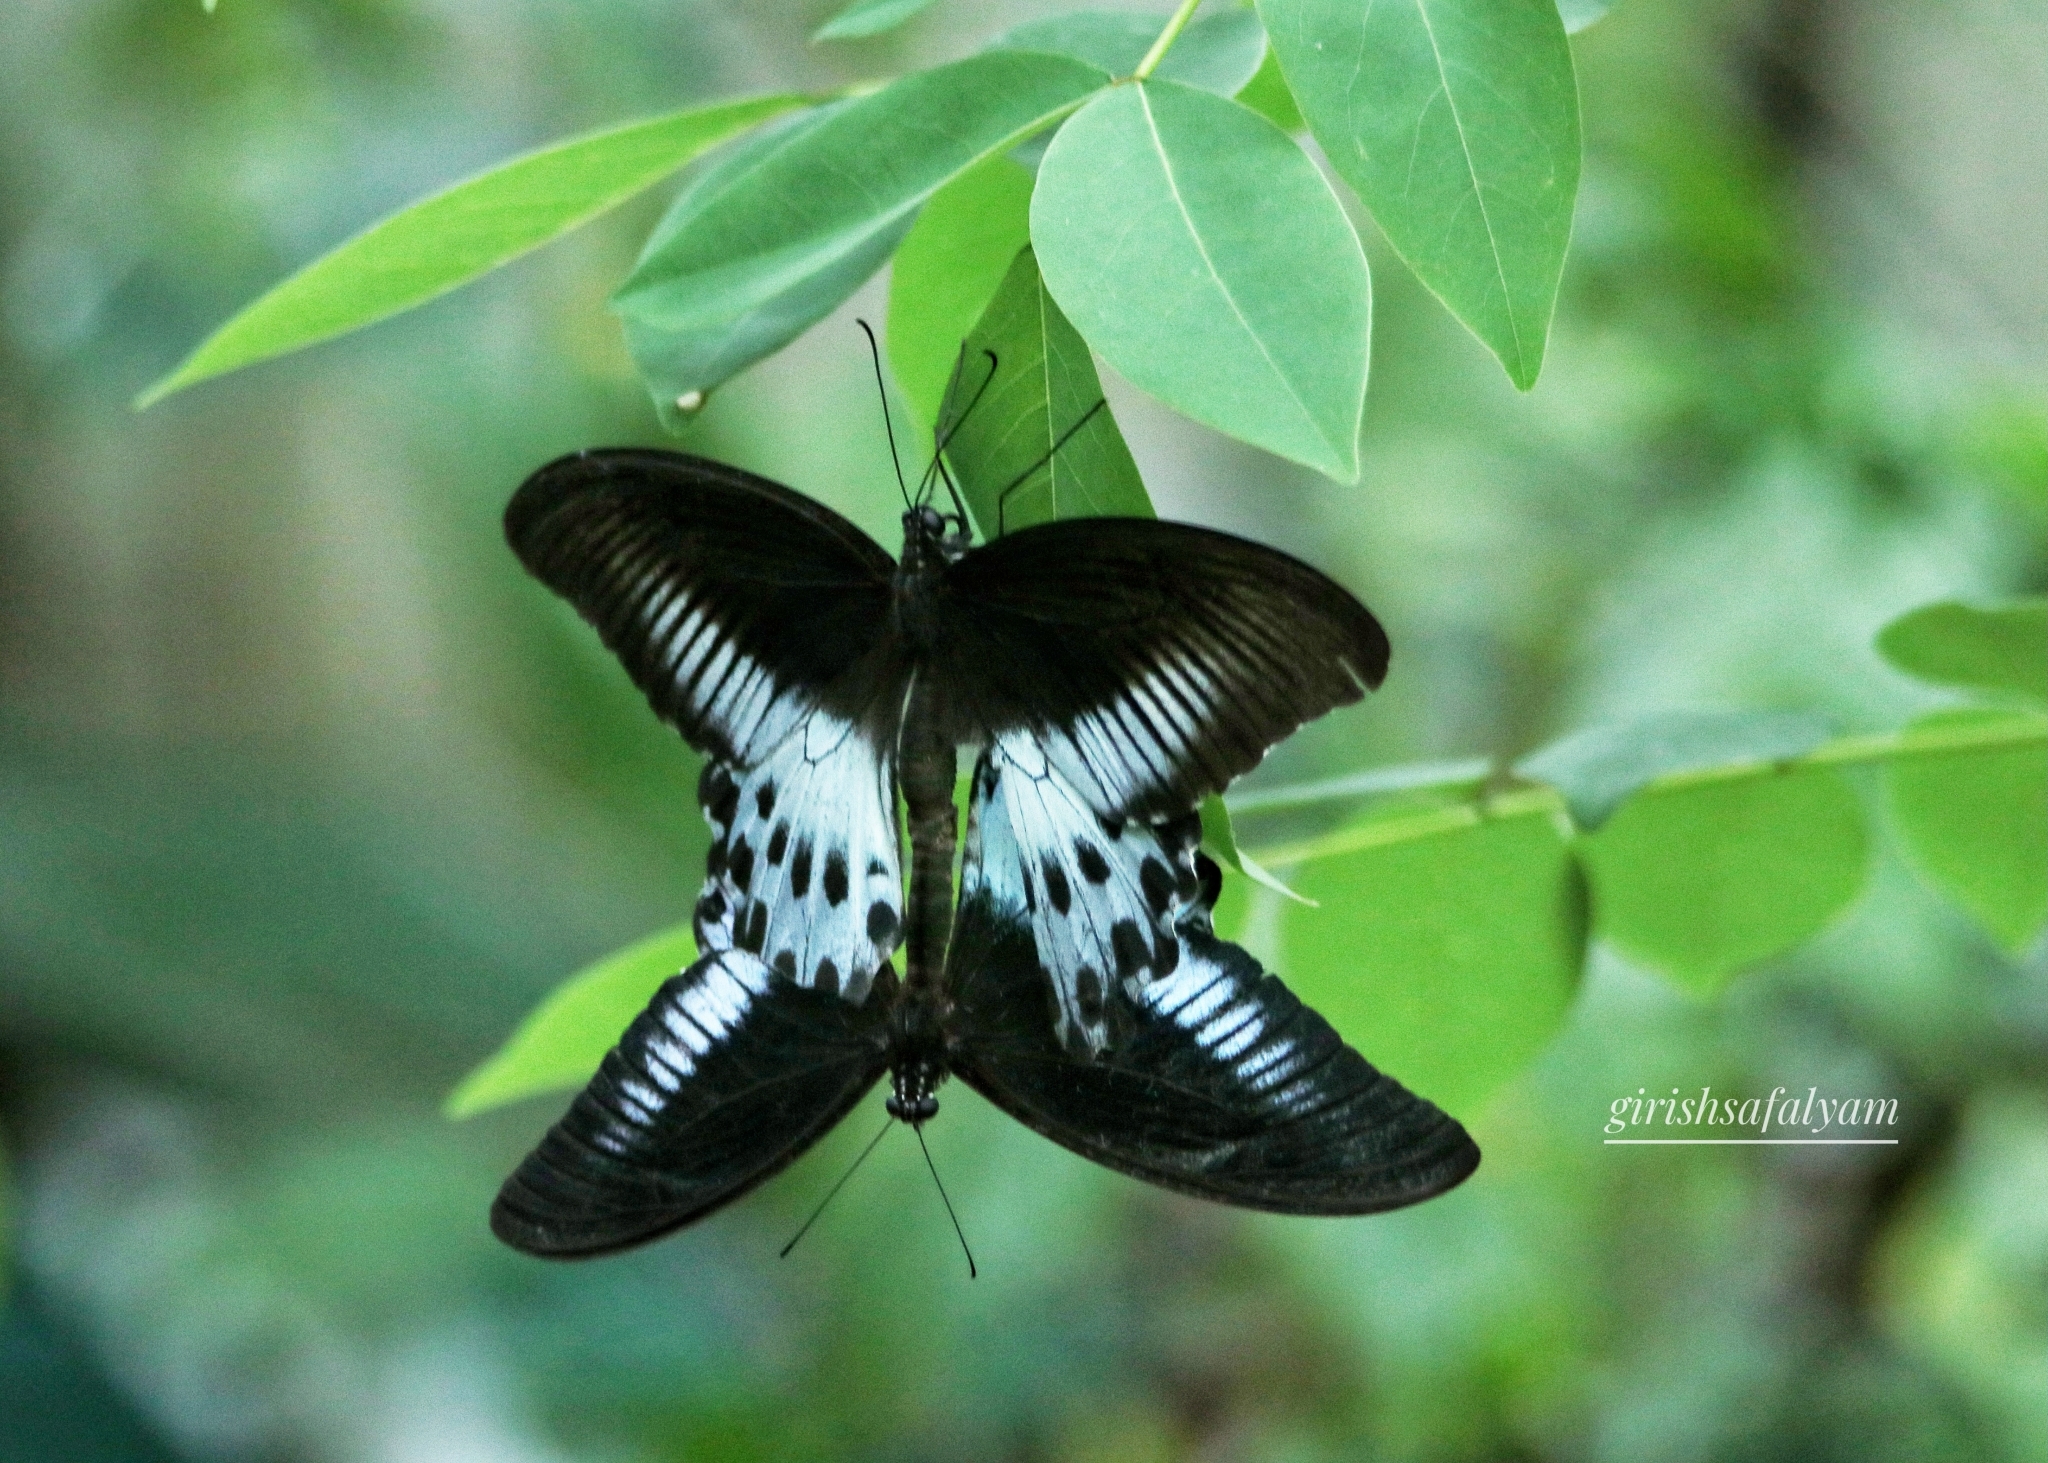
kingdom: Animalia
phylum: Arthropoda
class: Insecta
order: Lepidoptera
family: Papilionidae
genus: Papilio
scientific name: Papilio memnon
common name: Great mormon
